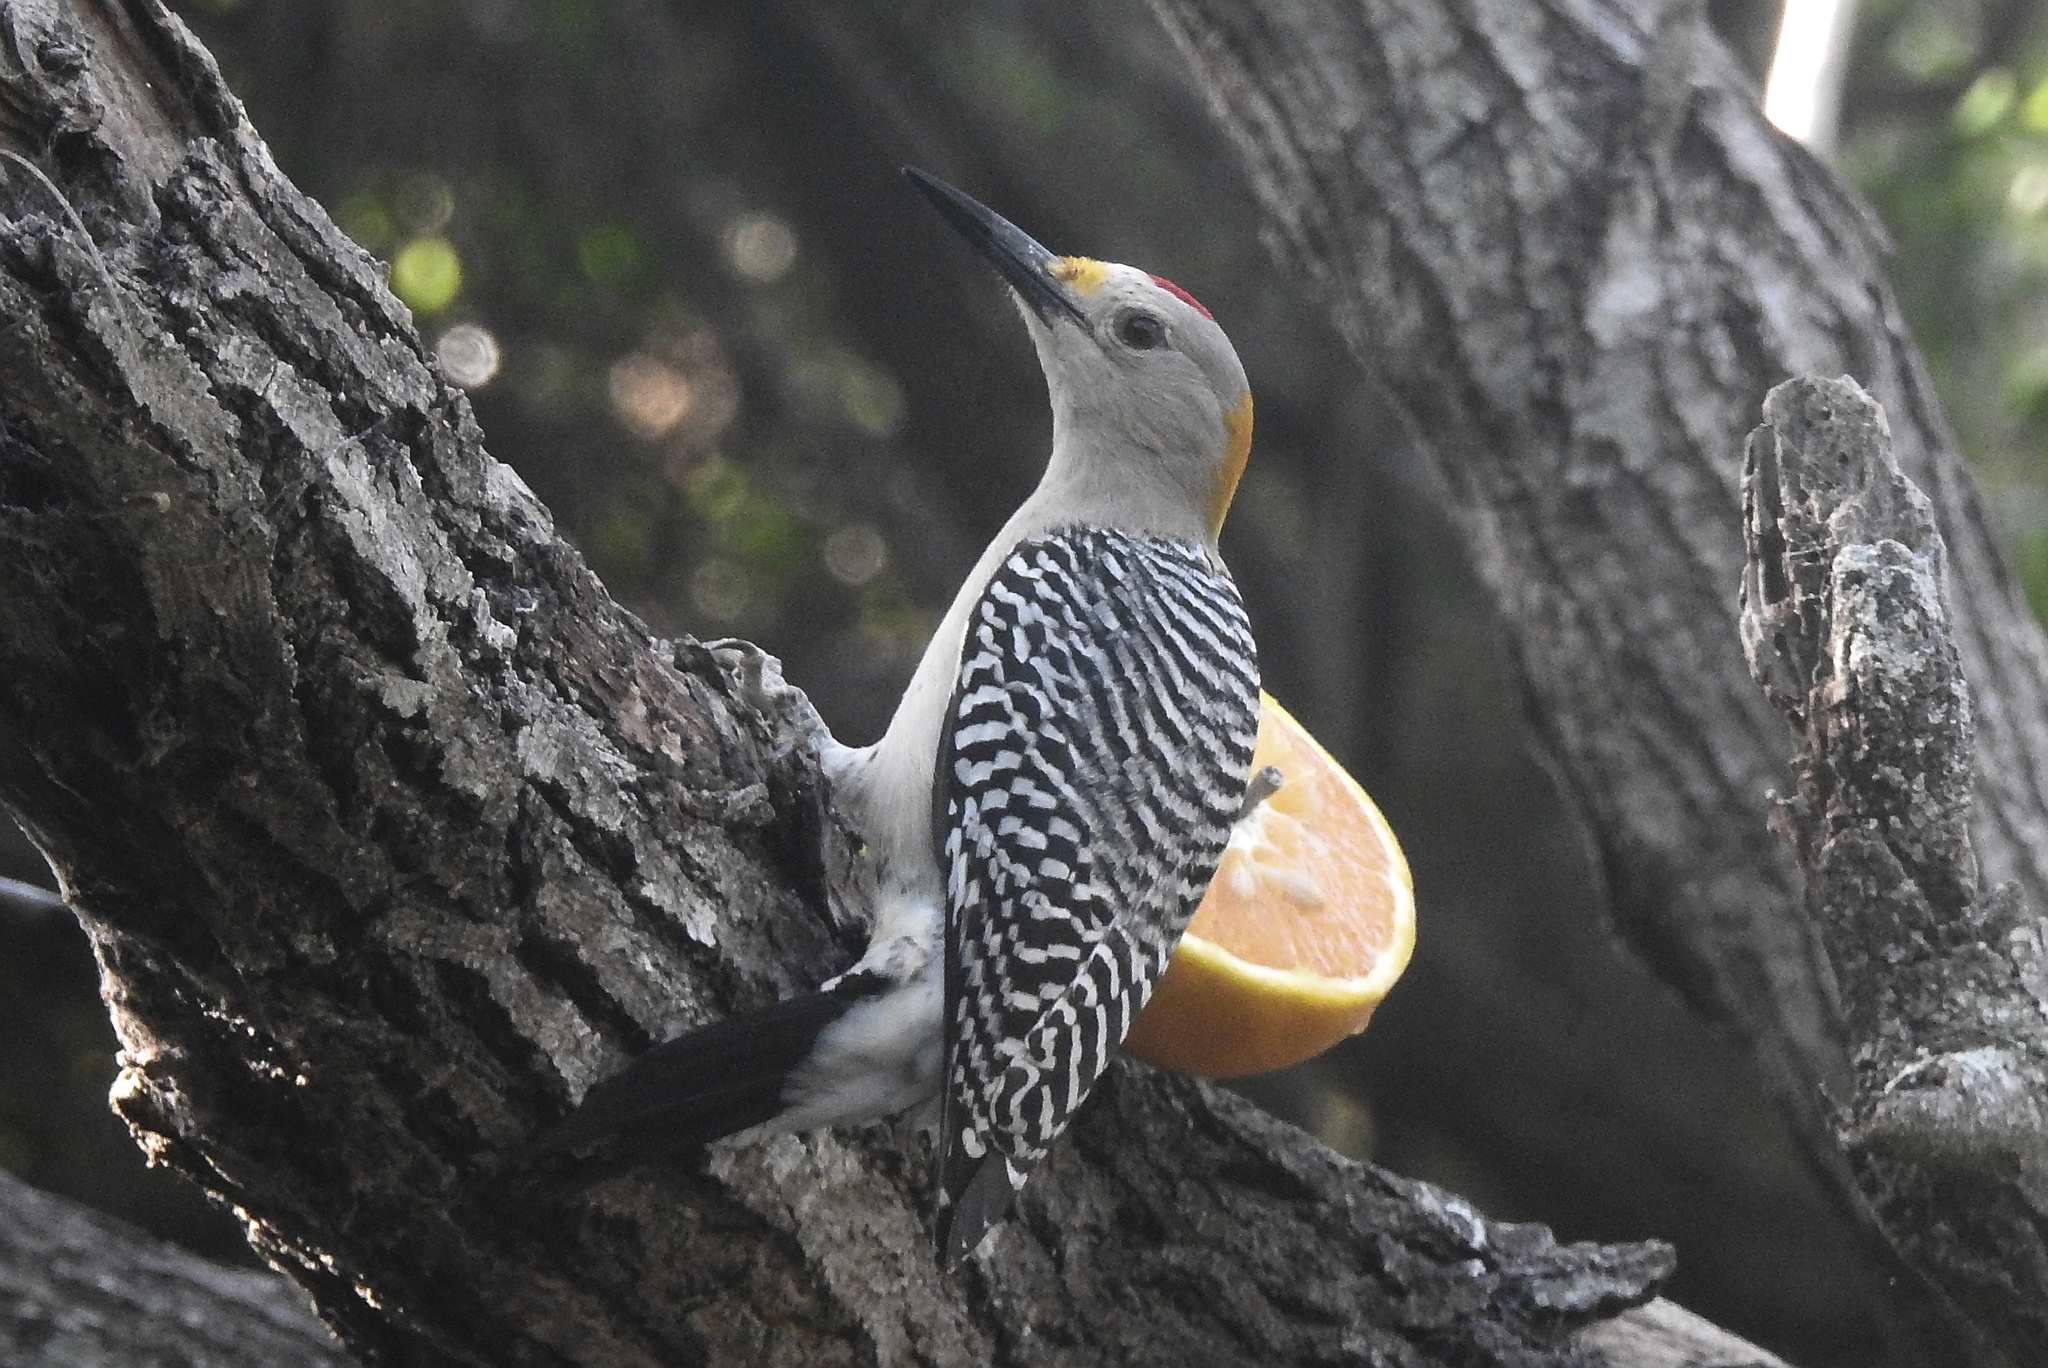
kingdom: Animalia
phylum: Chordata
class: Aves
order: Piciformes
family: Picidae
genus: Melanerpes
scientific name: Melanerpes aurifrons
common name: Golden-fronted woodpecker
